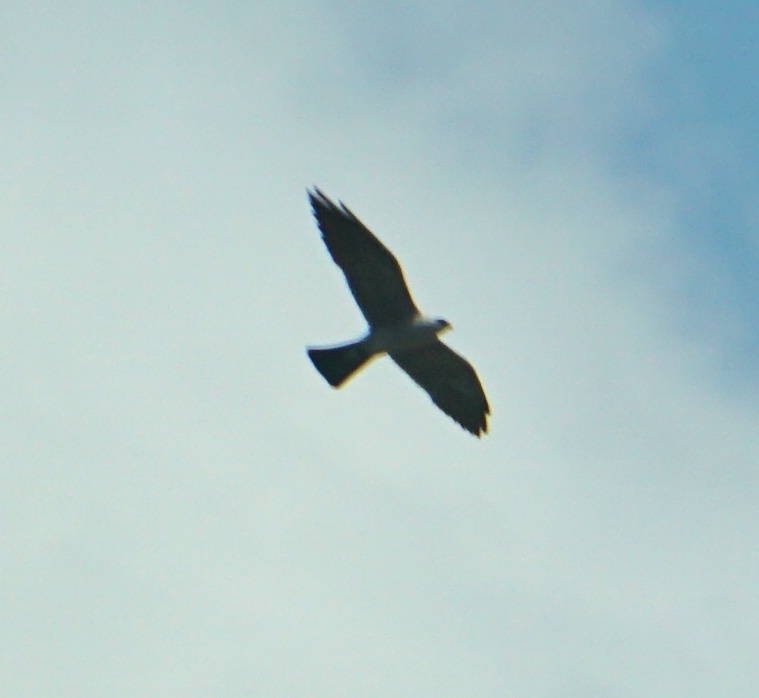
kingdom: Animalia
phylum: Chordata
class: Aves
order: Accipitriformes
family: Accipitridae
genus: Ictinia
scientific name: Ictinia mississippiensis
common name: Mississippi kite
